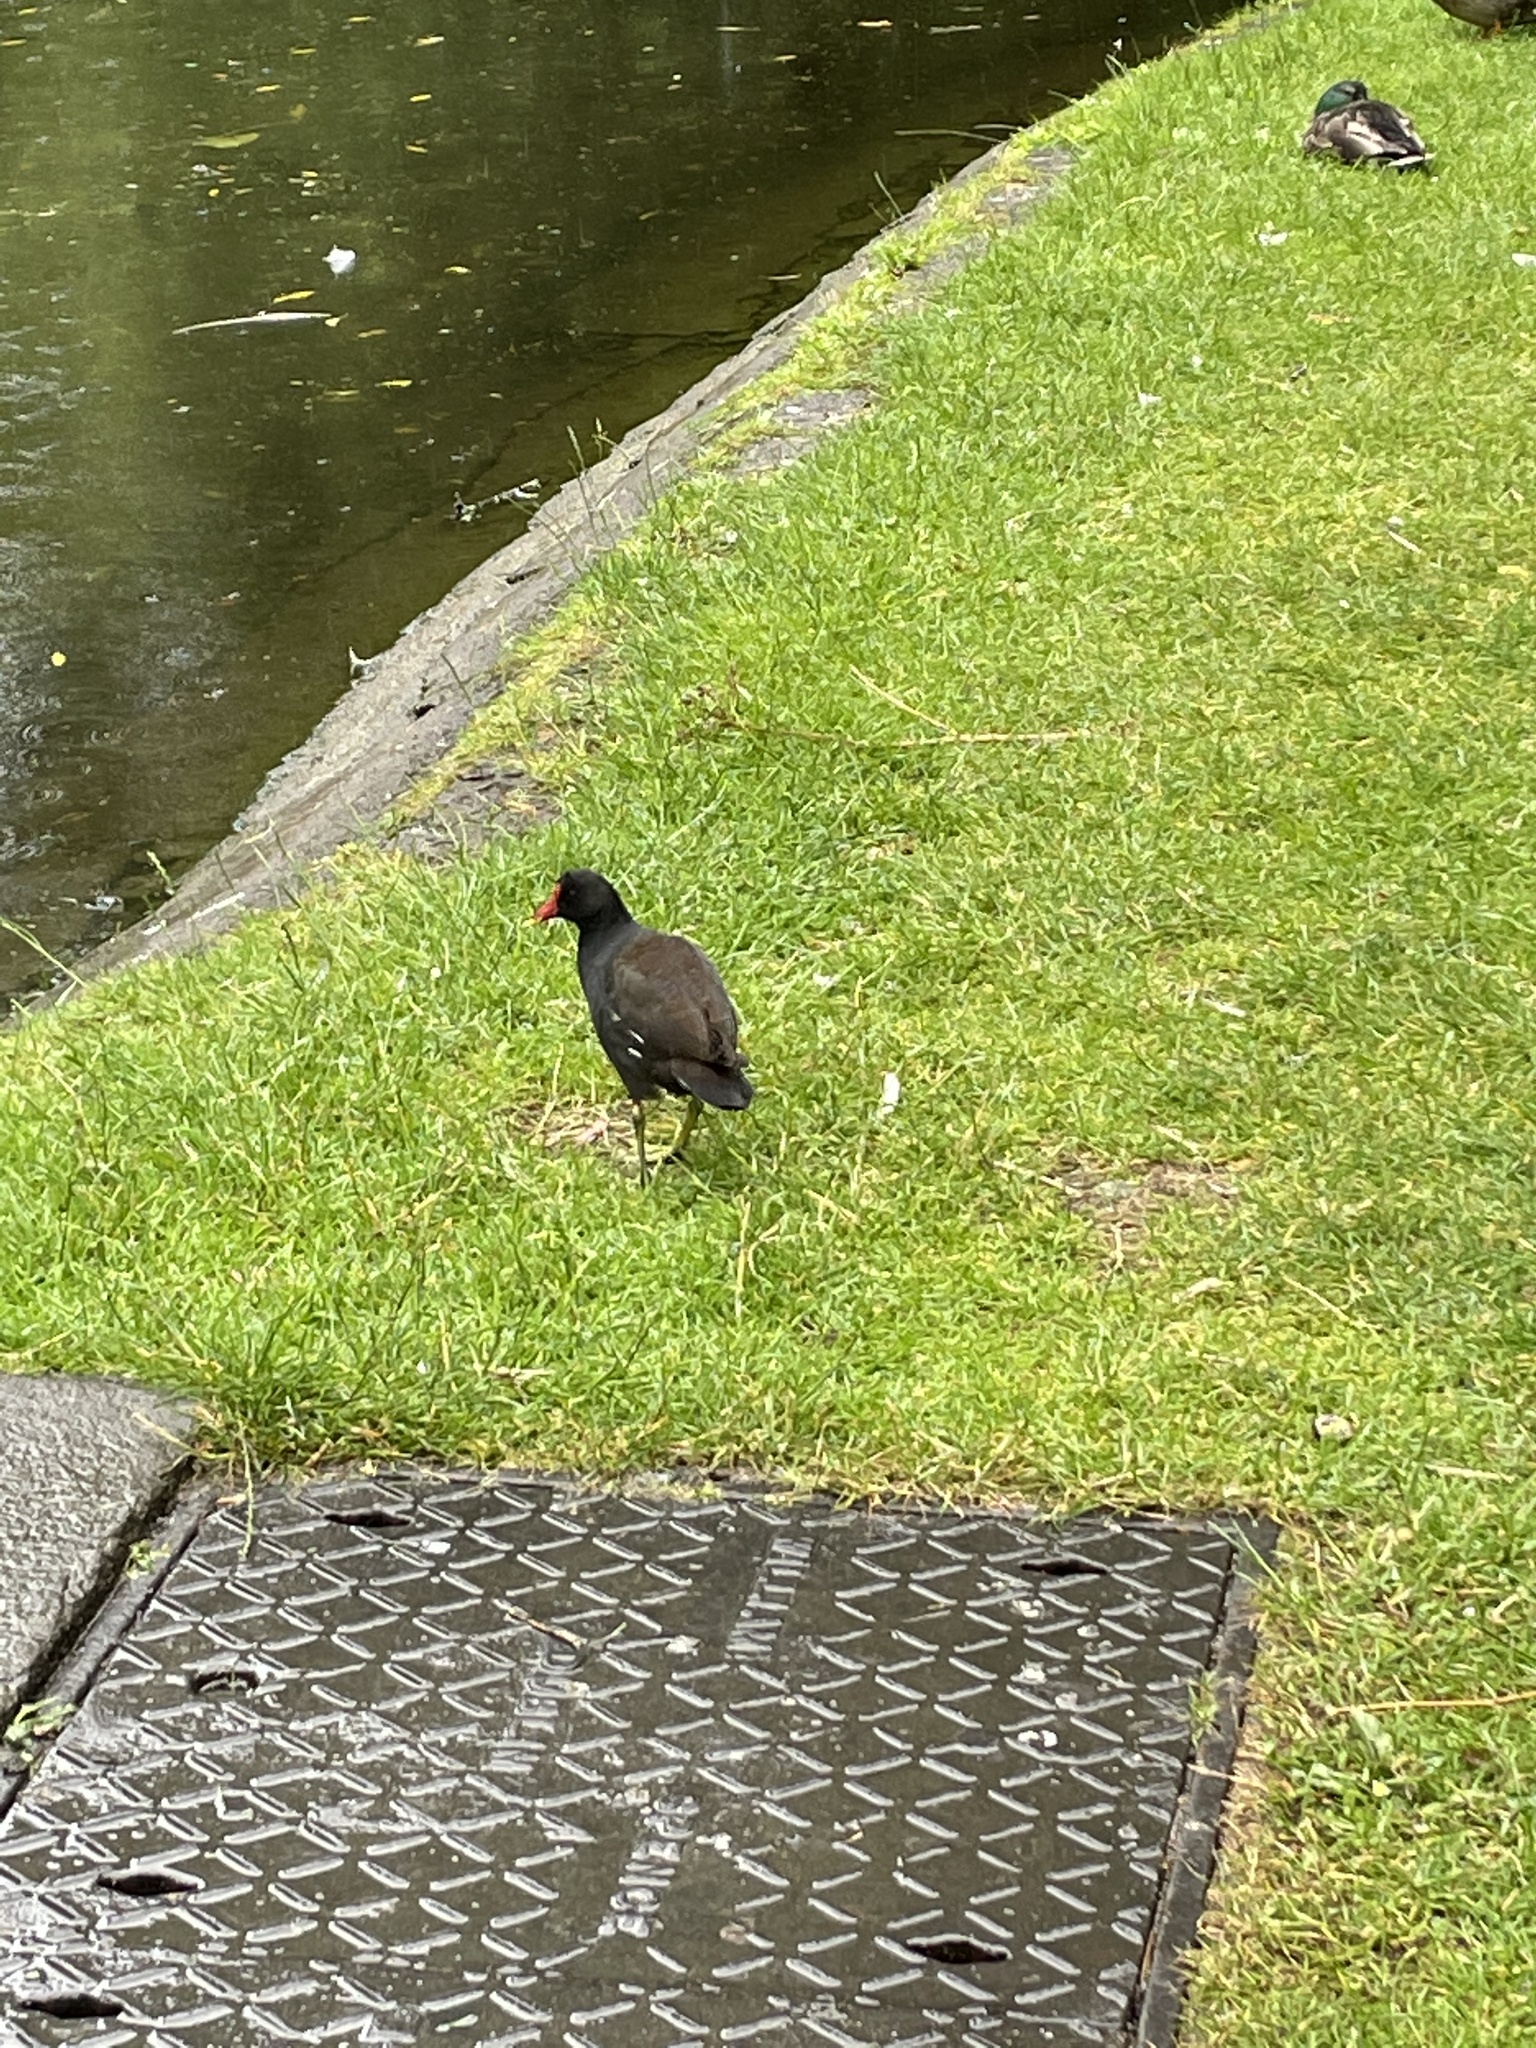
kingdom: Animalia
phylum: Chordata
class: Aves
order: Gruiformes
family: Rallidae
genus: Gallinula
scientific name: Gallinula chloropus
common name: Common moorhen
